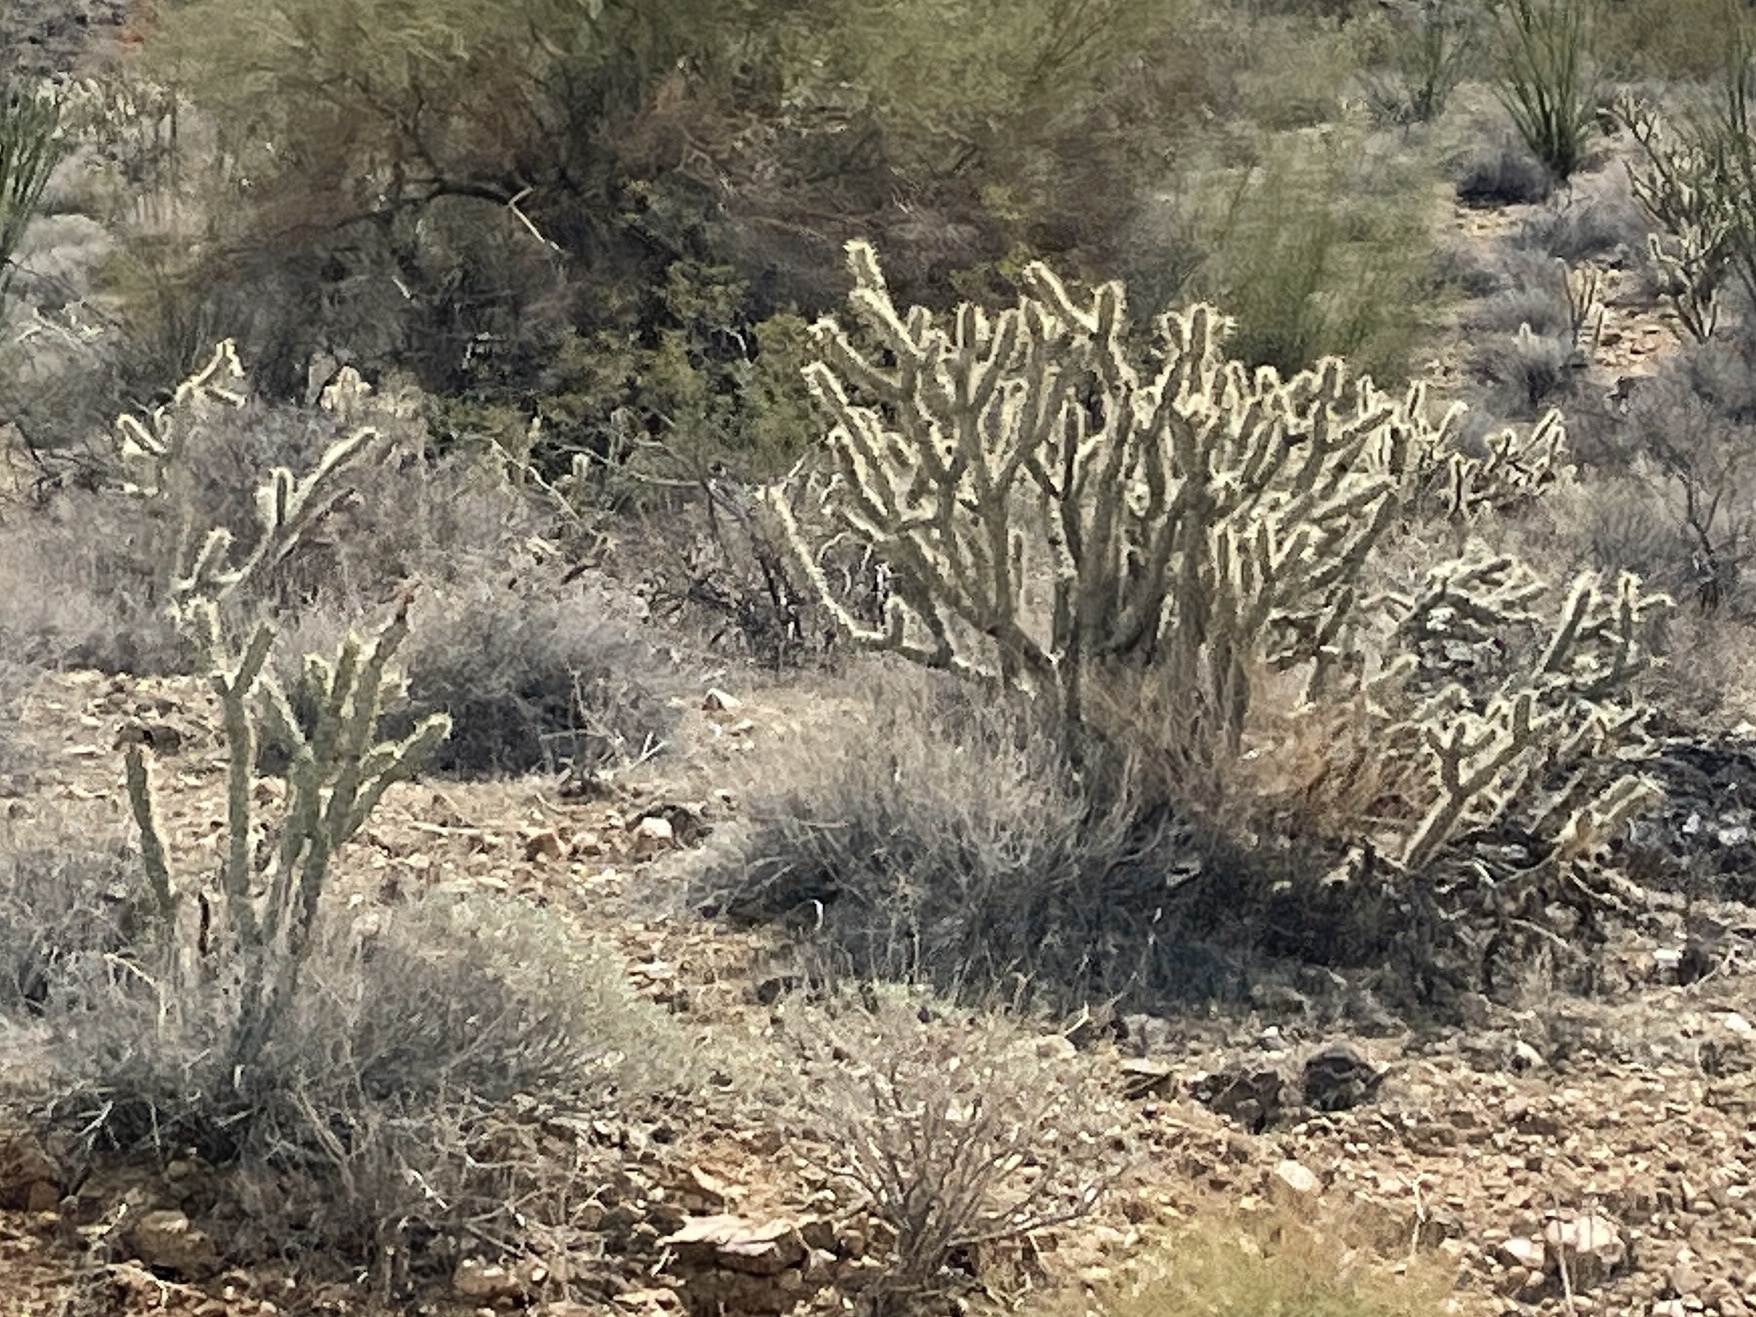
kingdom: Plantae
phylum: Tracheophyta
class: Magnoliopsida
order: Caryophyllales
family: Cactaceae
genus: Cylindropuntia
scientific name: Cylindropuntia acanthocarpa
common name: Buckhorn cholla
